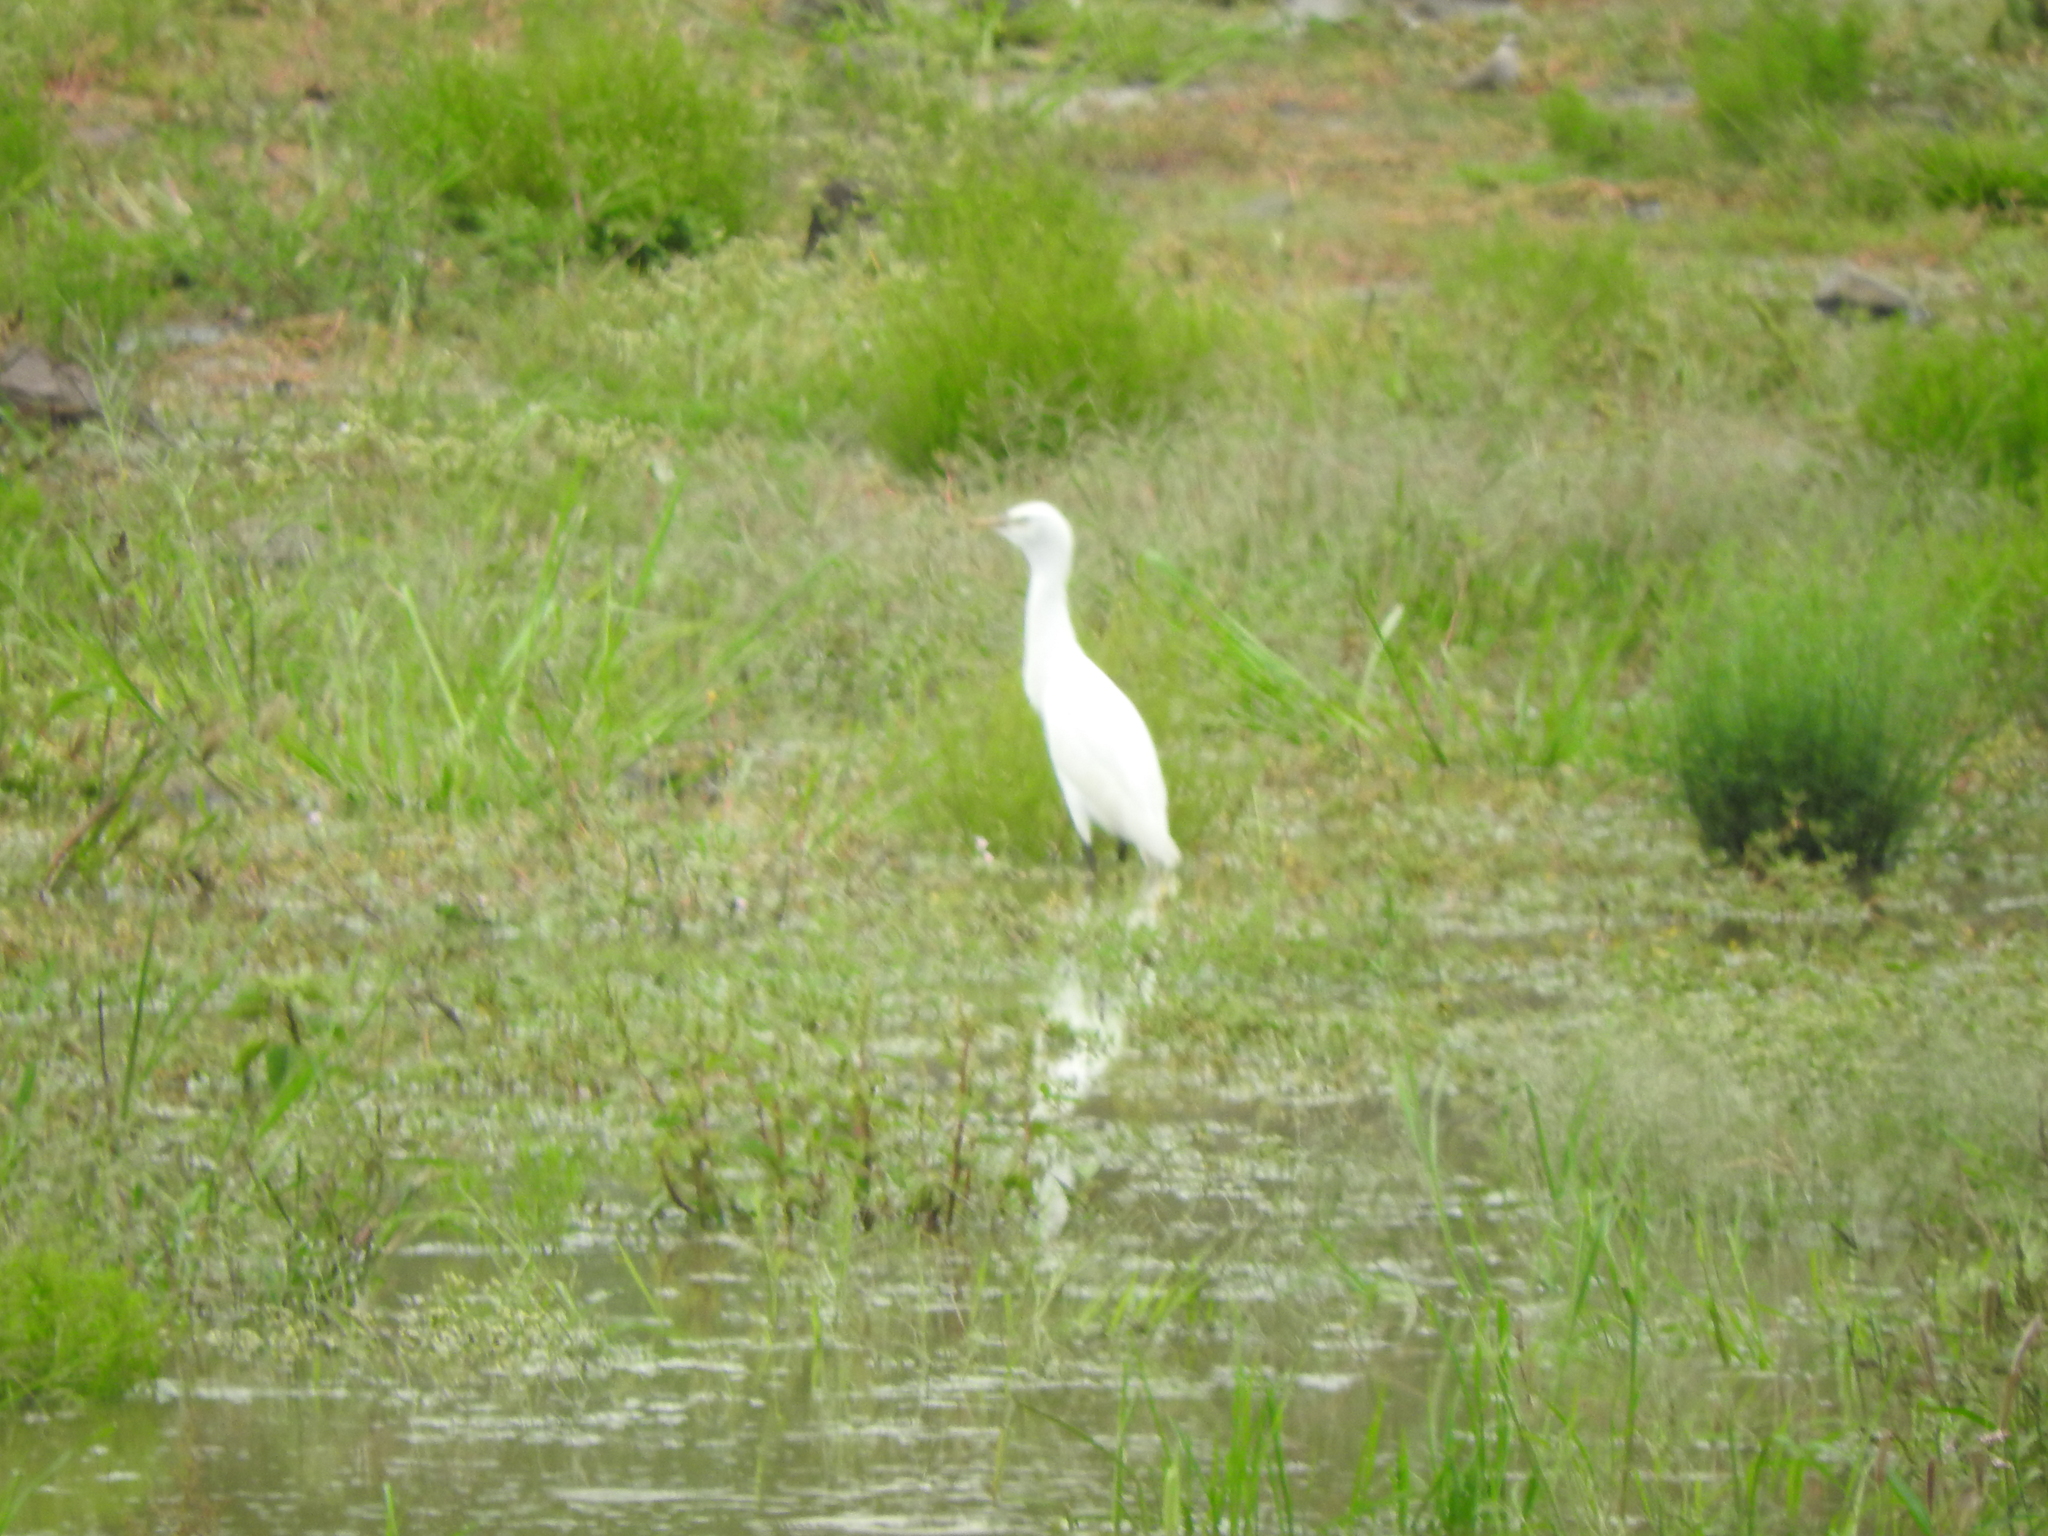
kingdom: Animalia
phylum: Chordata
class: Aves
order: Pelecaniformes
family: Ardeidae
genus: Bubulcus
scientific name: Bubulcus ibis
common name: Cattle egret
